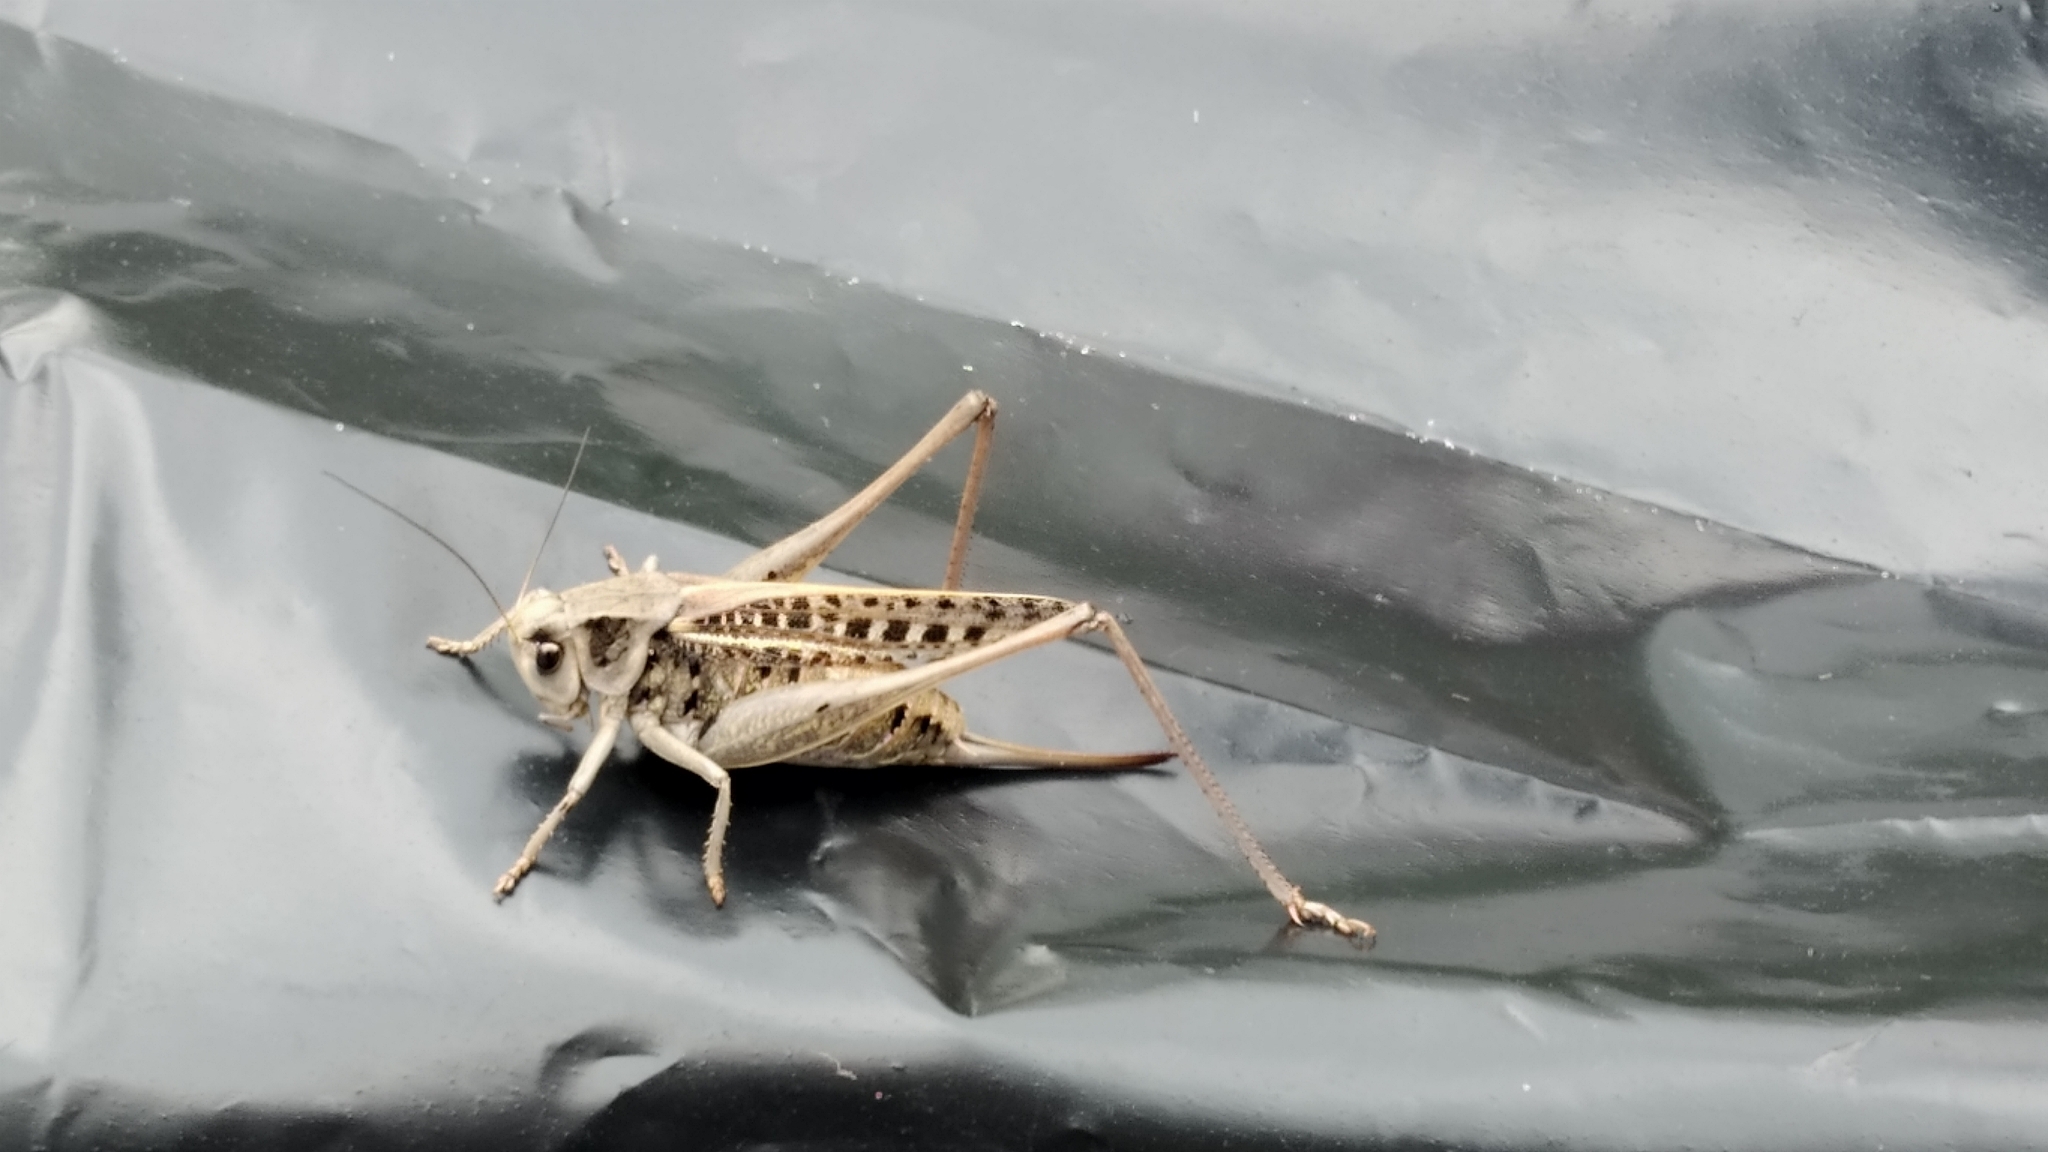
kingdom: Animalia
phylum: Arthropoda
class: Insecta
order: Orthoptera
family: Tettigoniidae
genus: Decticus
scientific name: Decticus verrucivorus
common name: Wart-biter
